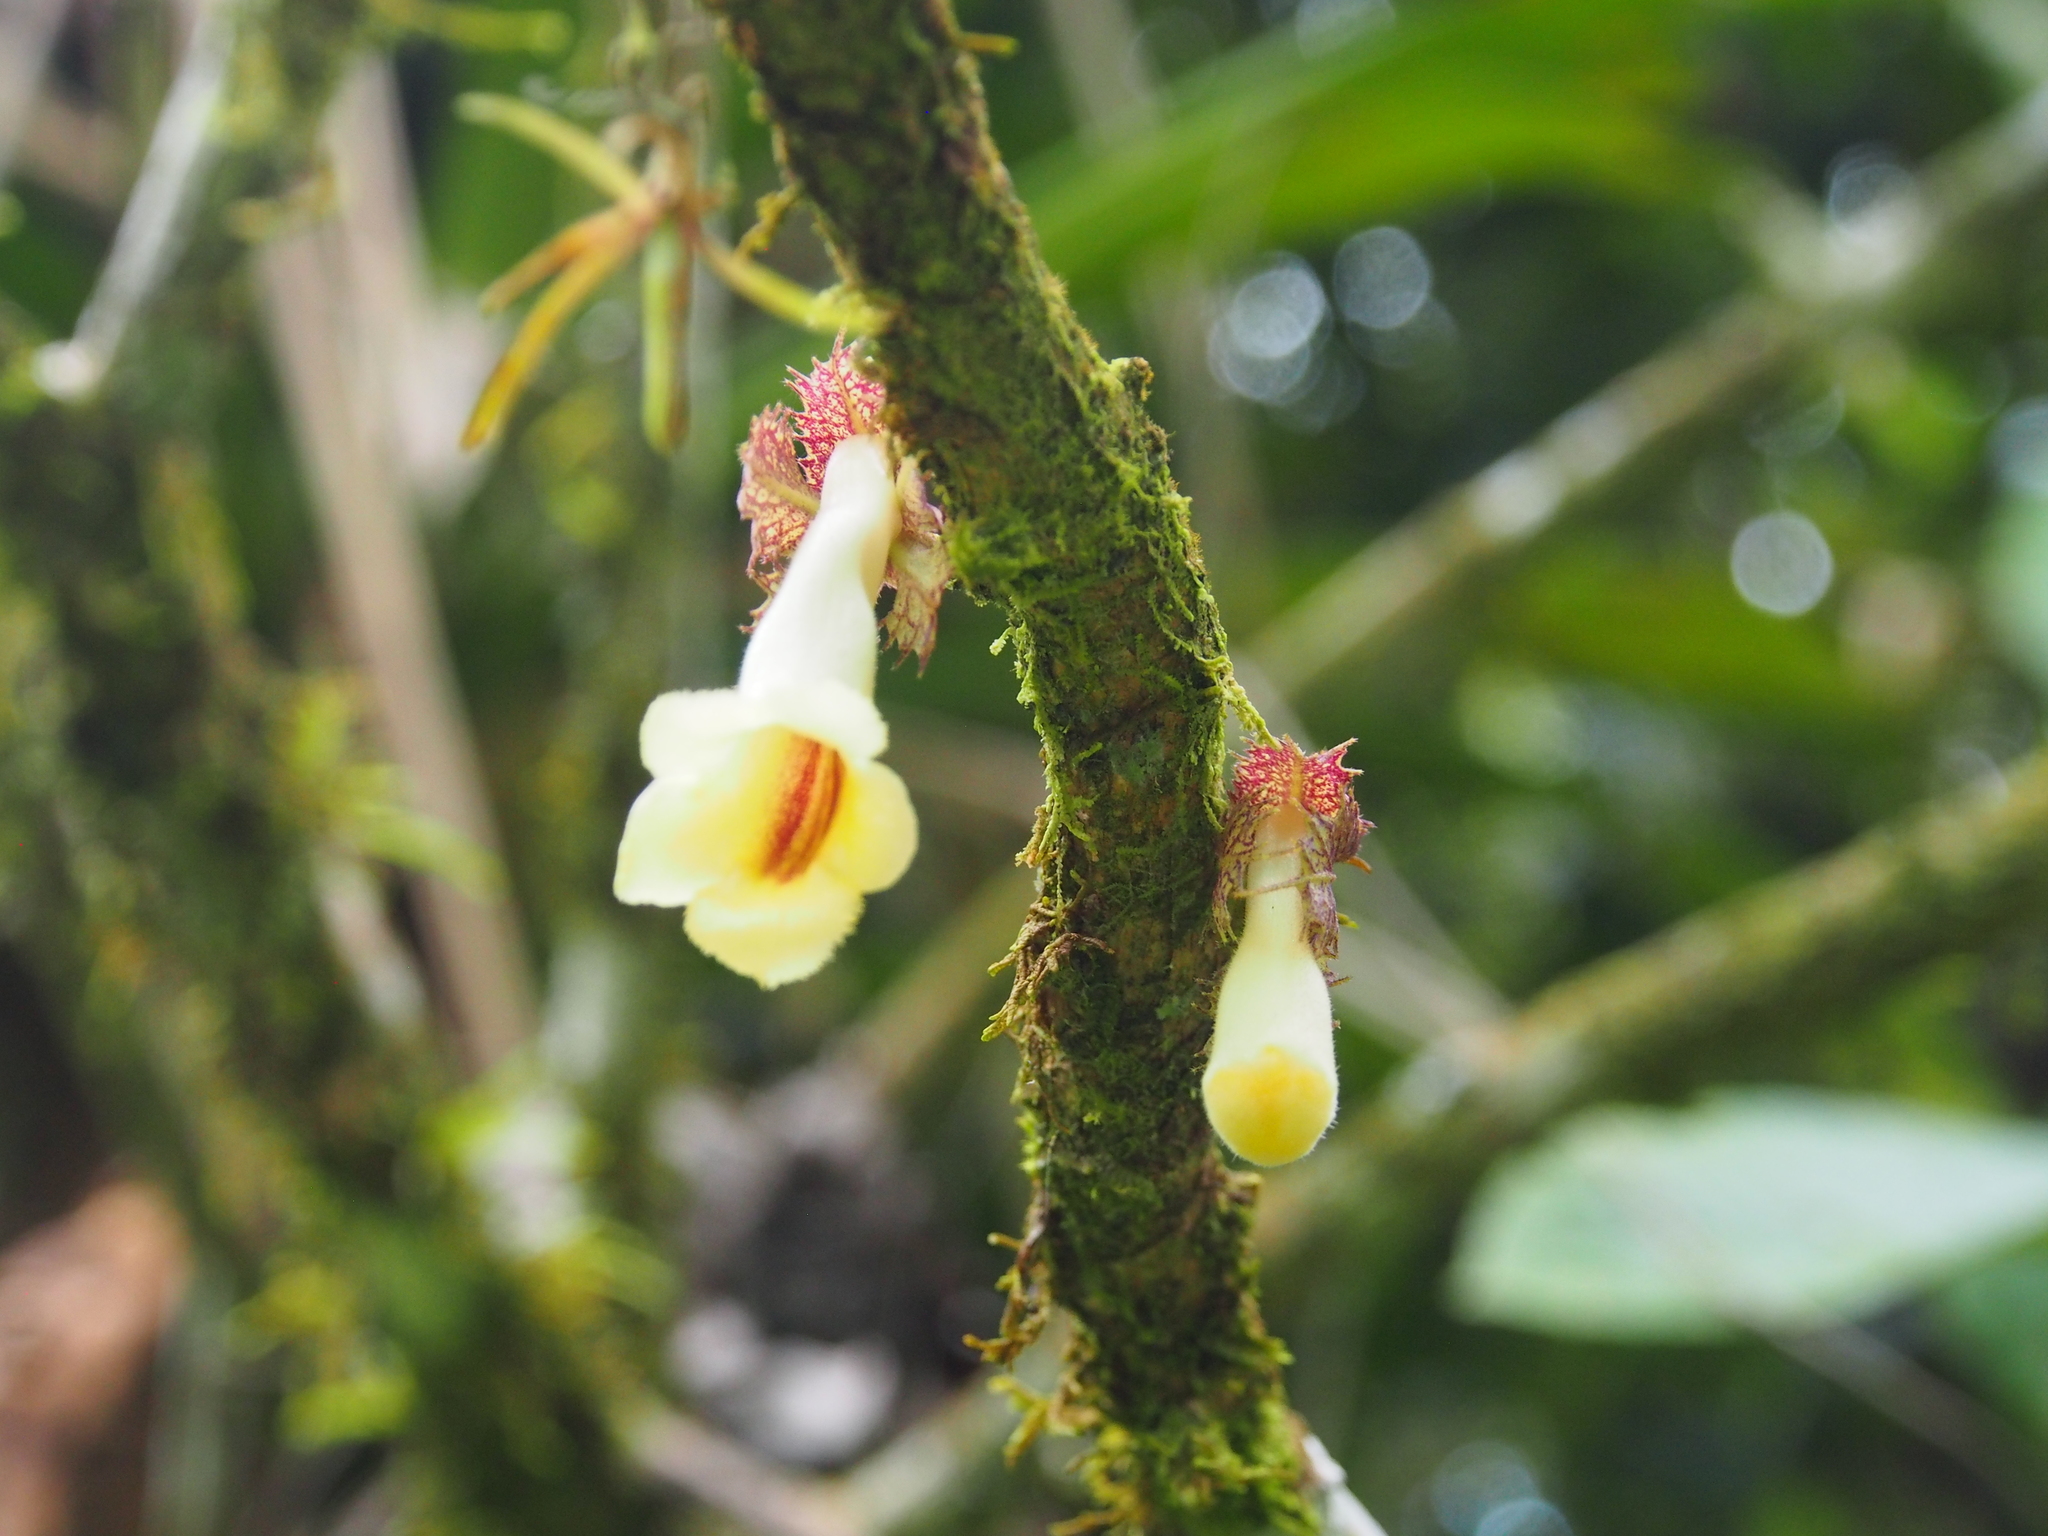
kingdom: Plantae
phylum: Tracheophyta
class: Magnoliopsida
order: Lamiales
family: Gesneriaceae
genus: Drymonia
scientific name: Drymonia macrophylla
